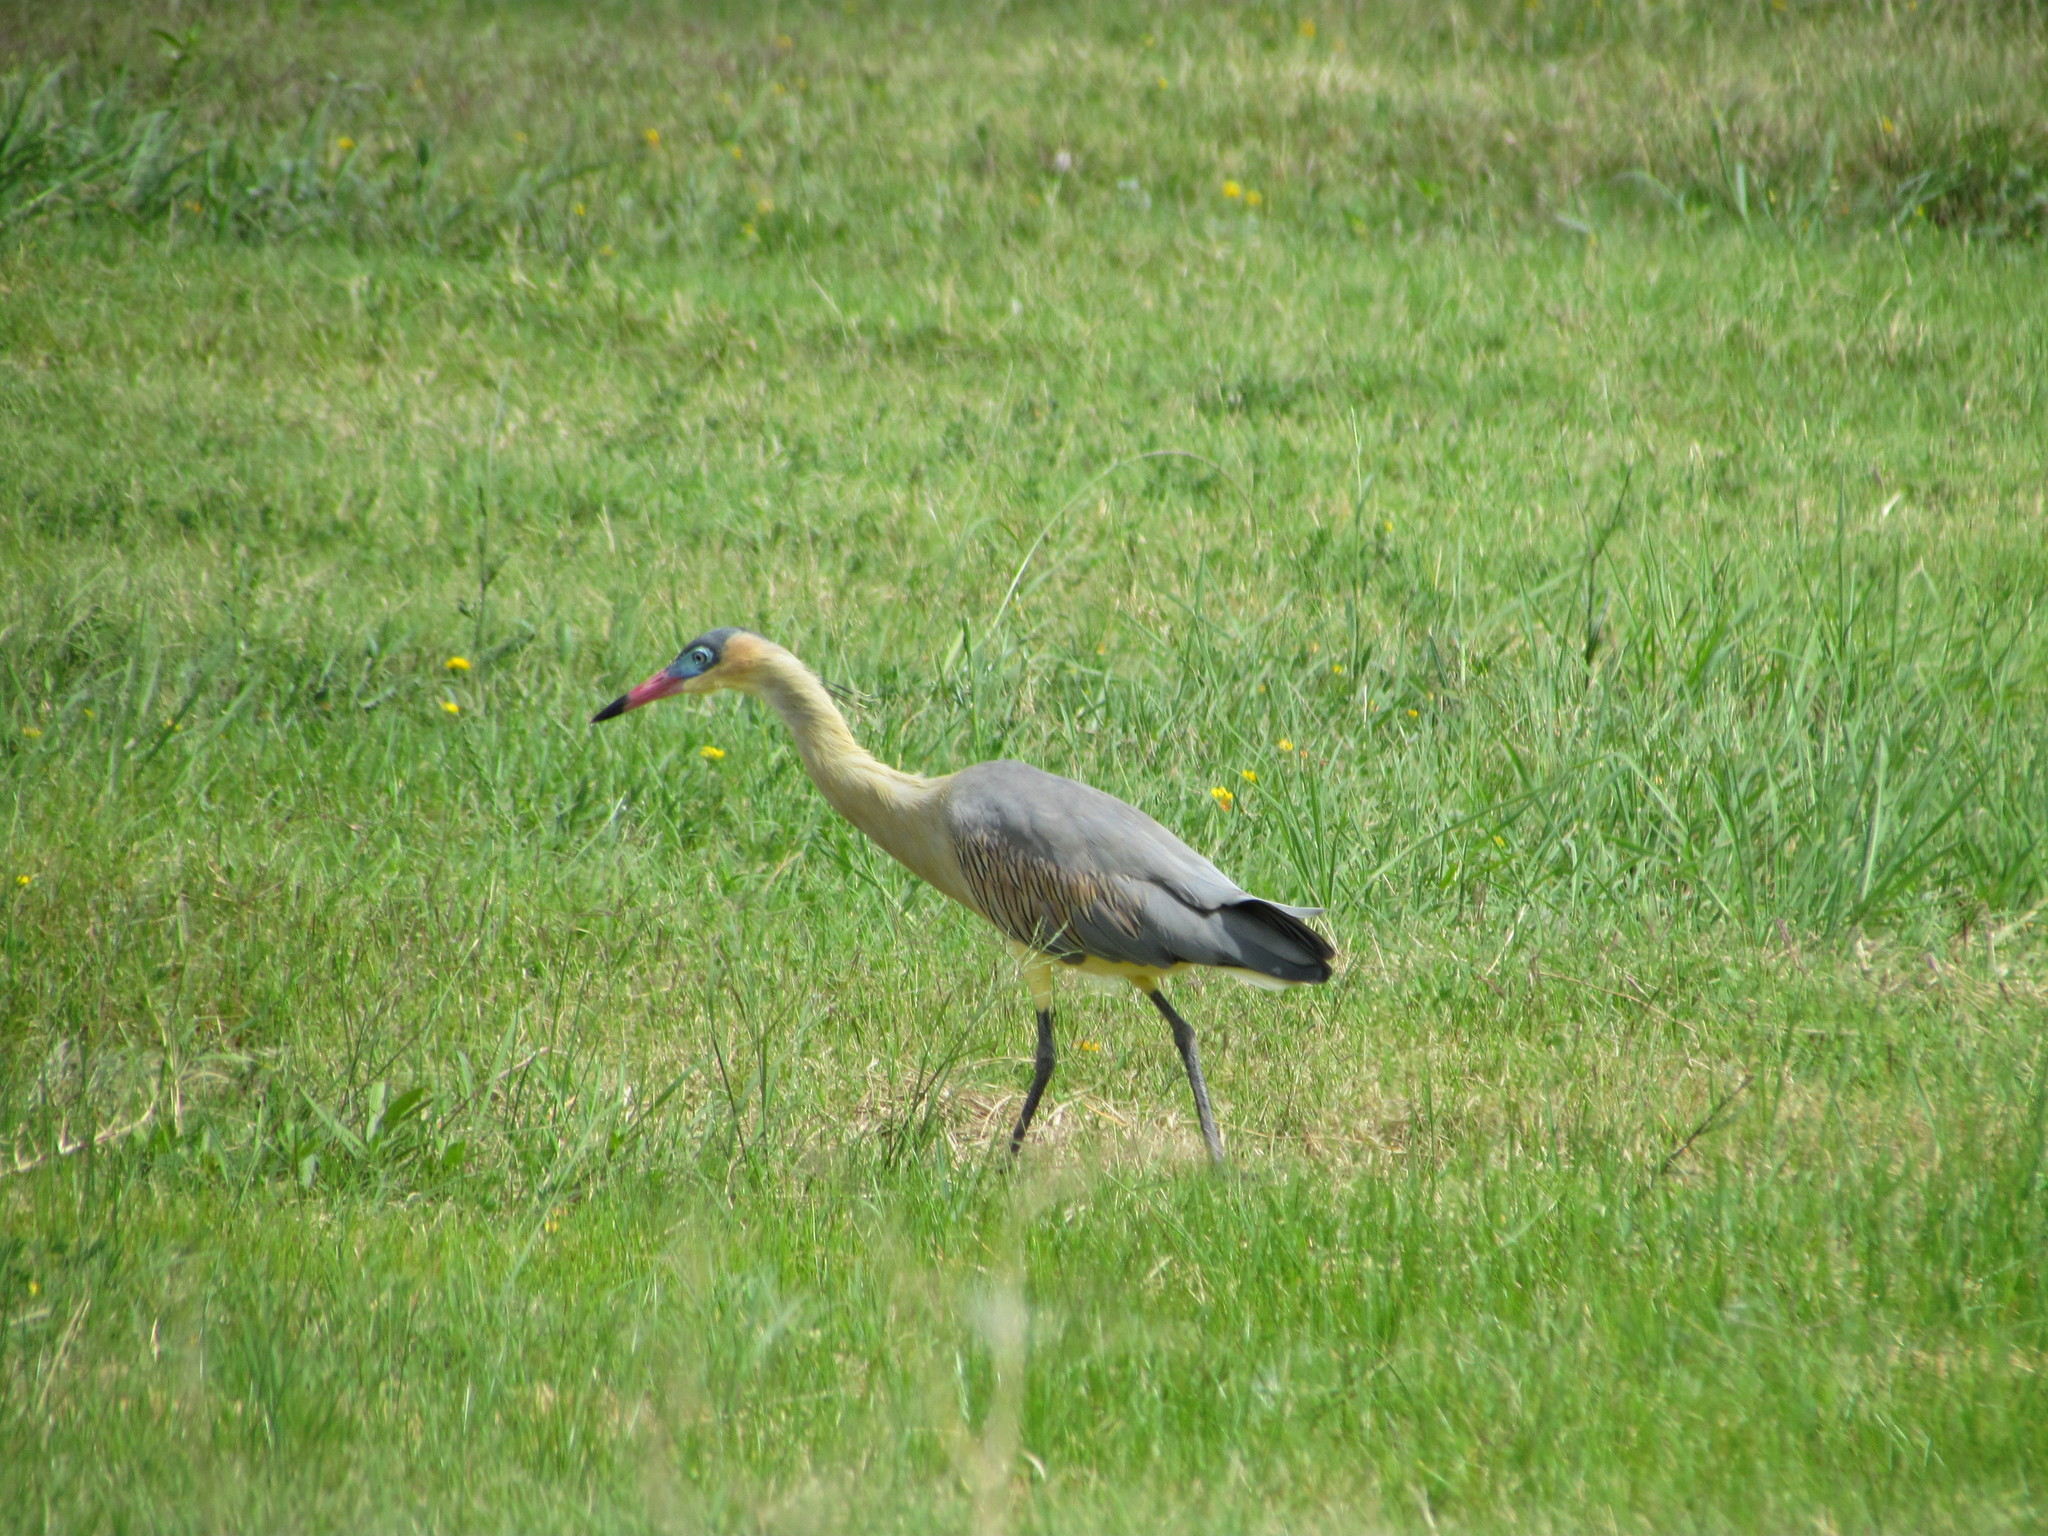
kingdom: Animalia
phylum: Chordata
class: Aves
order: Pelecaniformes
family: Ardeidae
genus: Syrigma
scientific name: Syrigma sibilatrix
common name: Whistling heron
